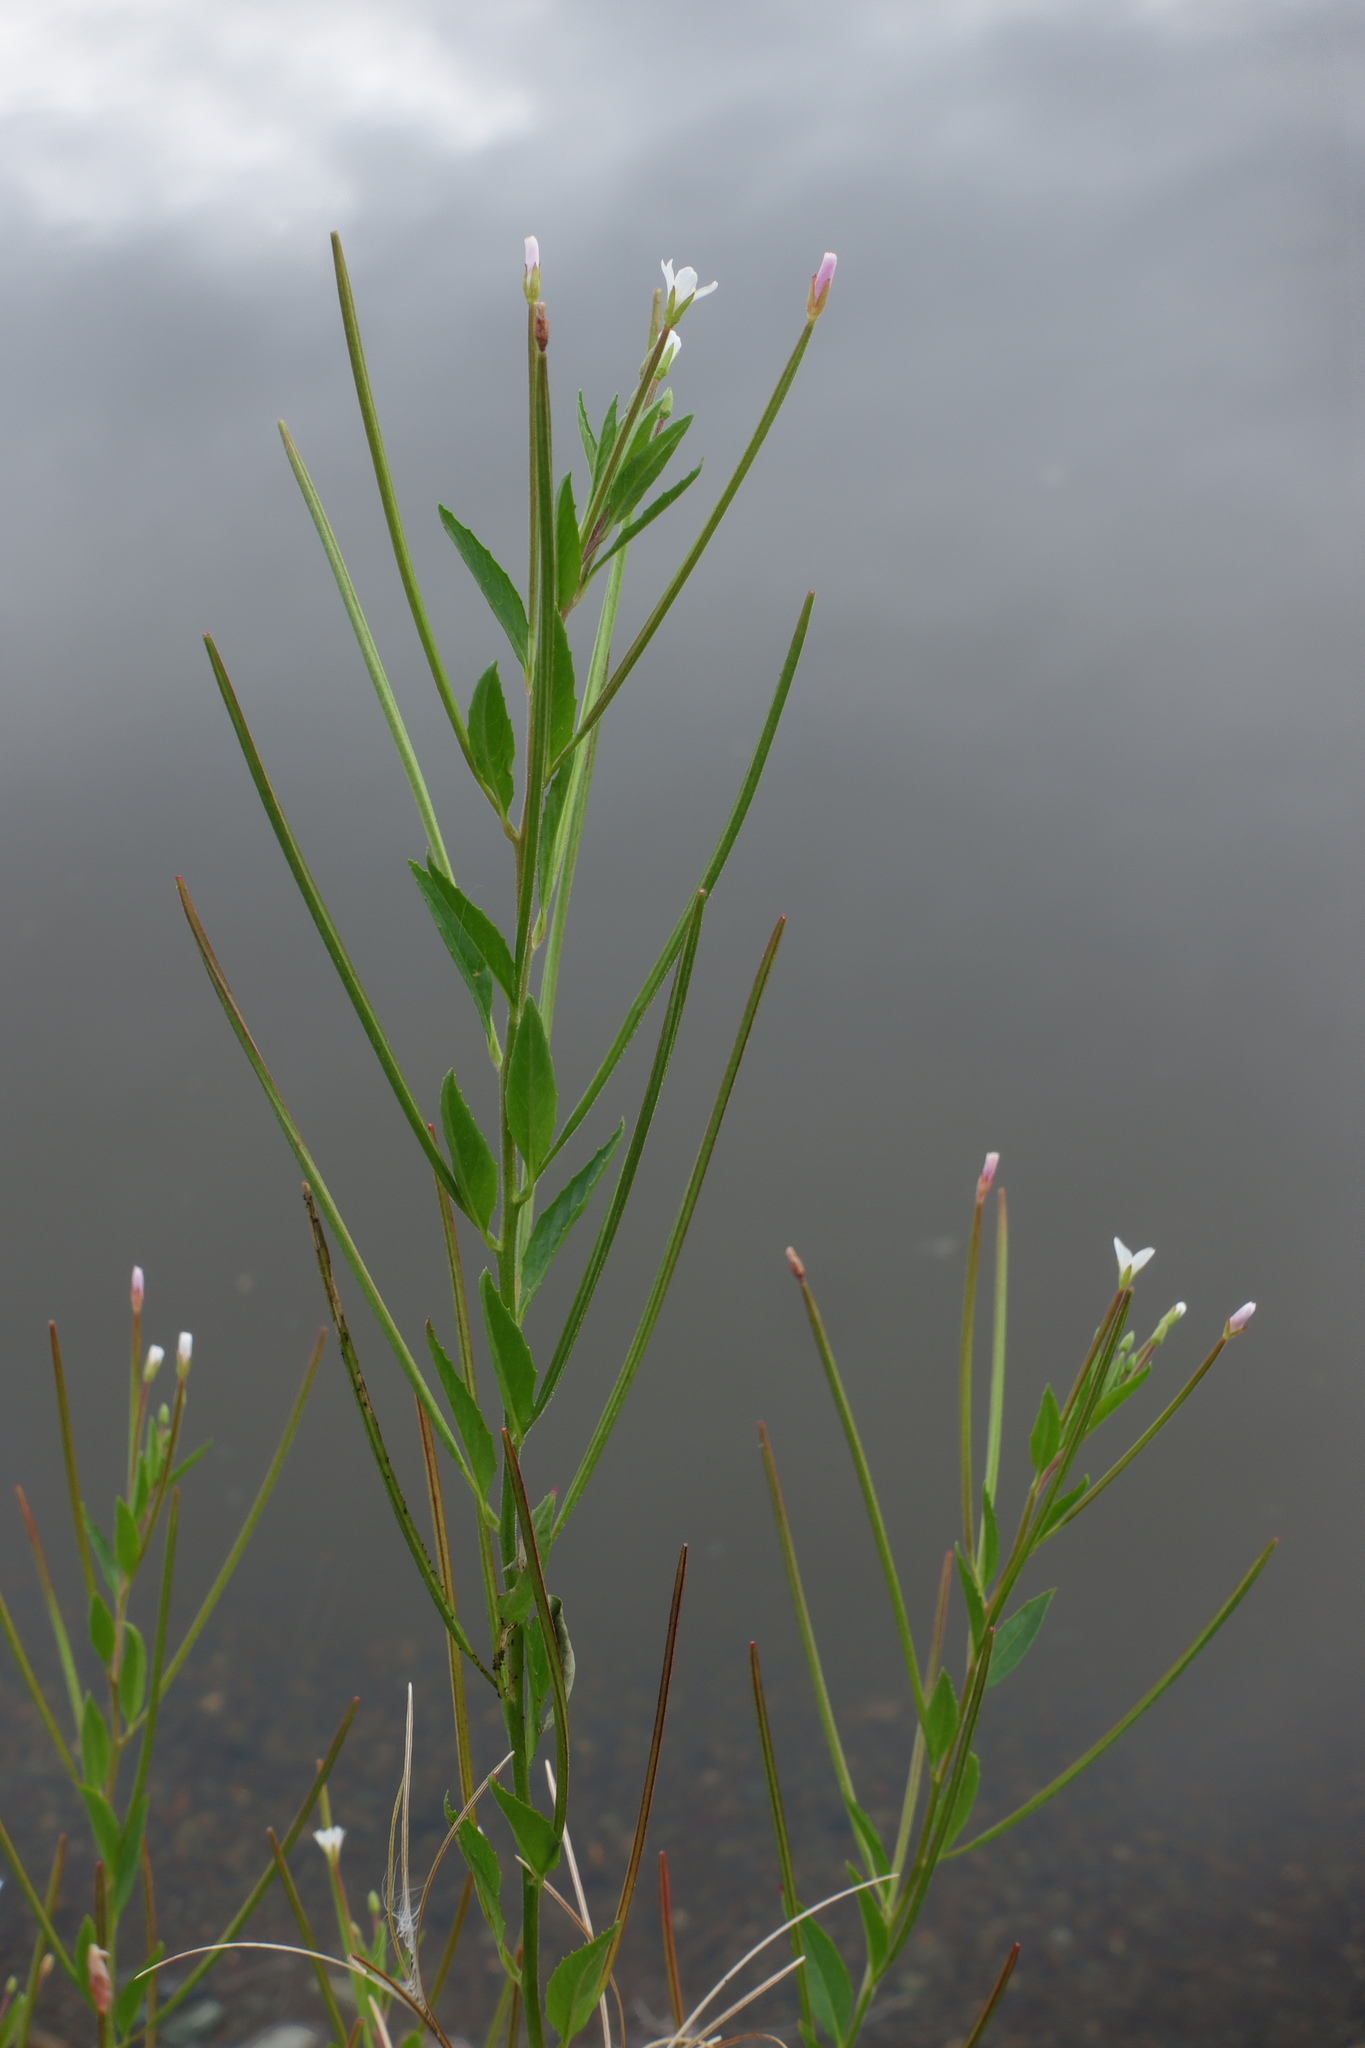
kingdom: Plantae
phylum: Tracheophyta
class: Magnoliopsida
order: Myrtales
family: Onagraceae
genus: Epilobium
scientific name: Epilobium pseudorubescens
